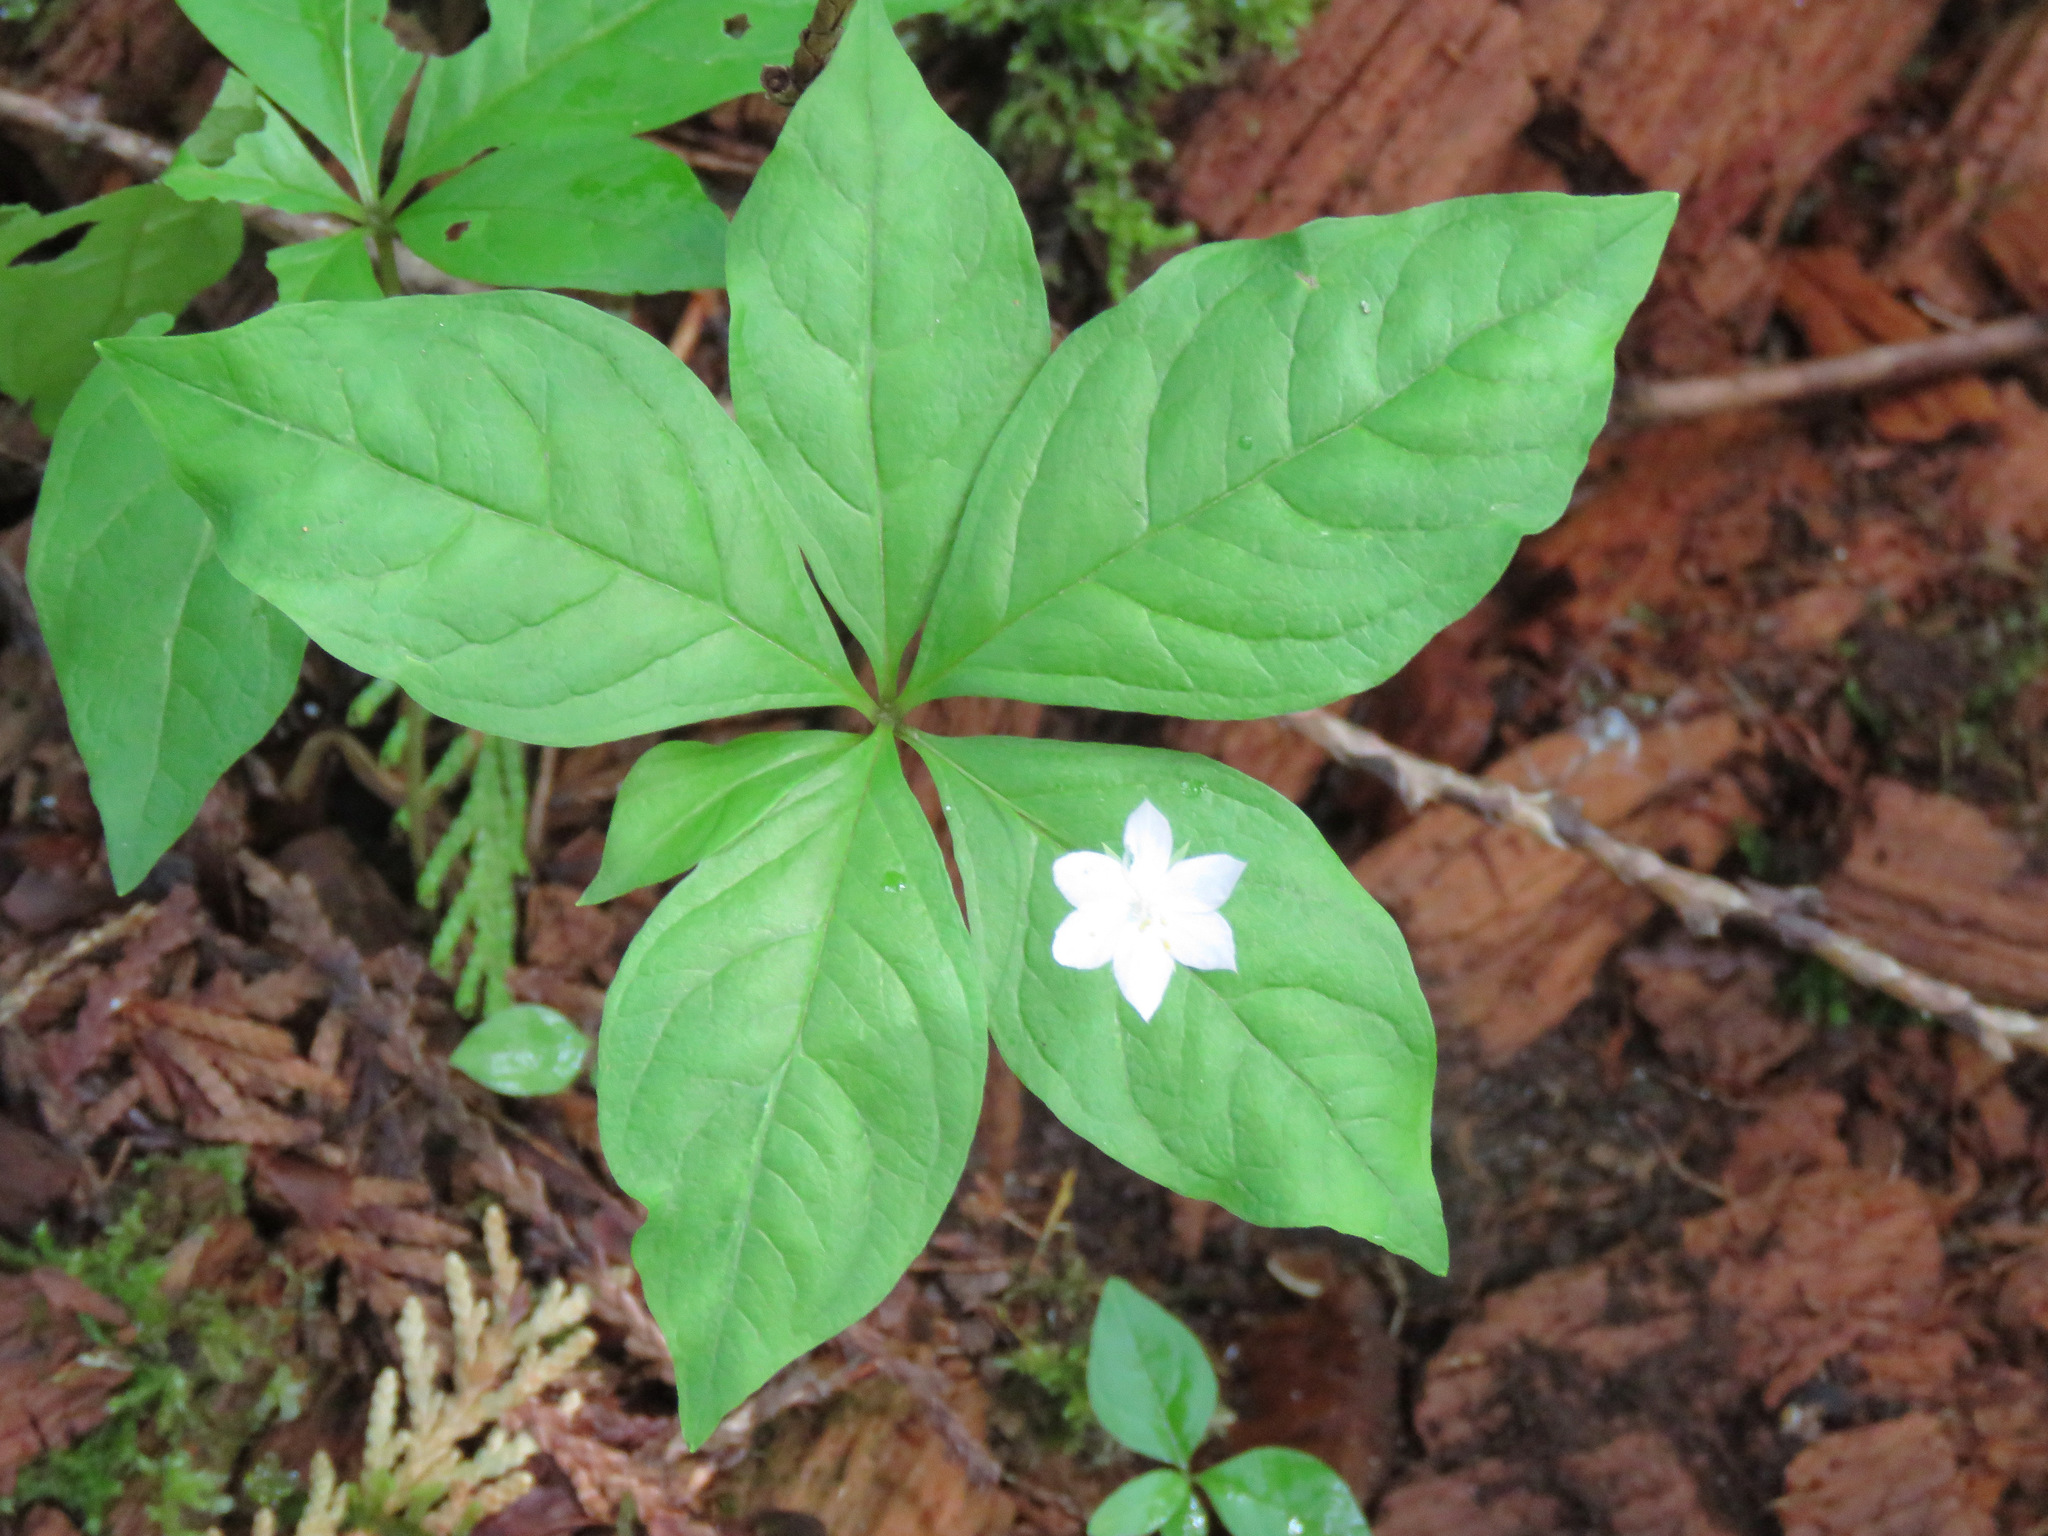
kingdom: Plantae
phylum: Tracheophyta
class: Magnoliopsida
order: Ericales
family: Primulaceae
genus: Lysimachia
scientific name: Lysimachia latifolia
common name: Pacific starflower
